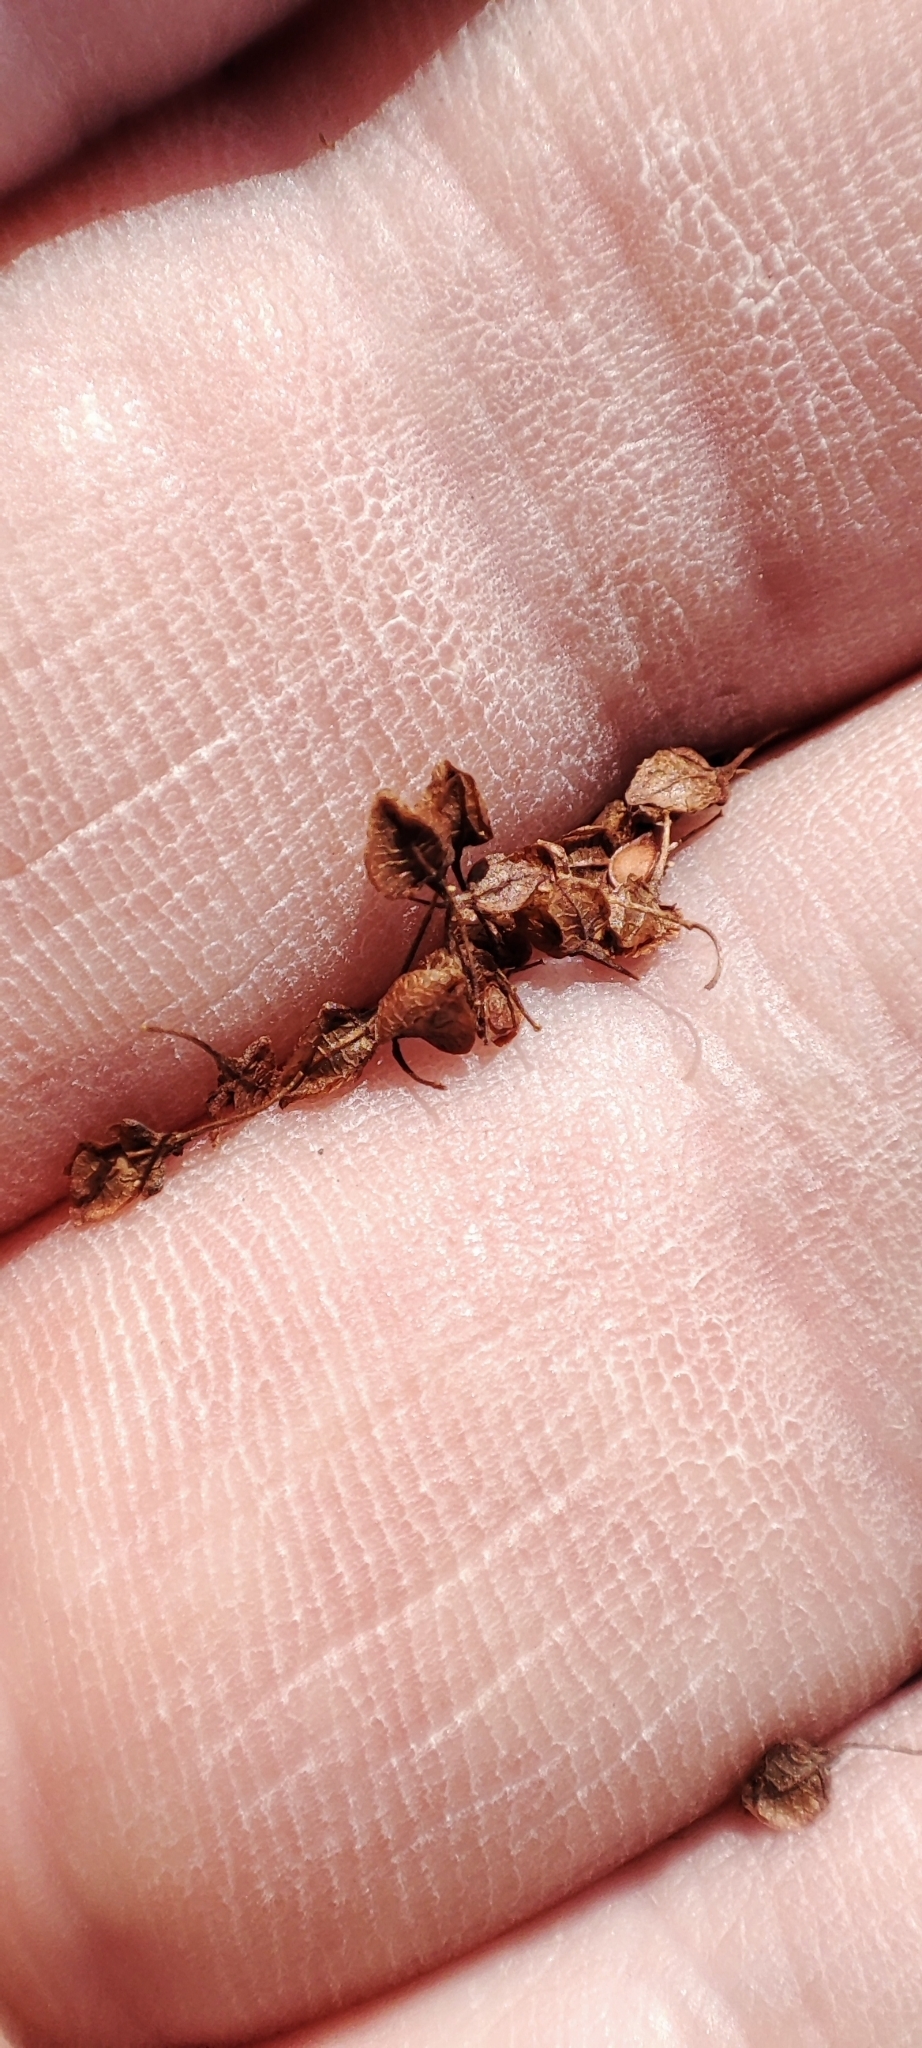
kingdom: Plantae
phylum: Tracheophyta
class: Magnoliopsida
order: Caryophyllales
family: Polygonaceae
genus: Rumex
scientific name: Rumex pseudonatronatus
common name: Field dock
